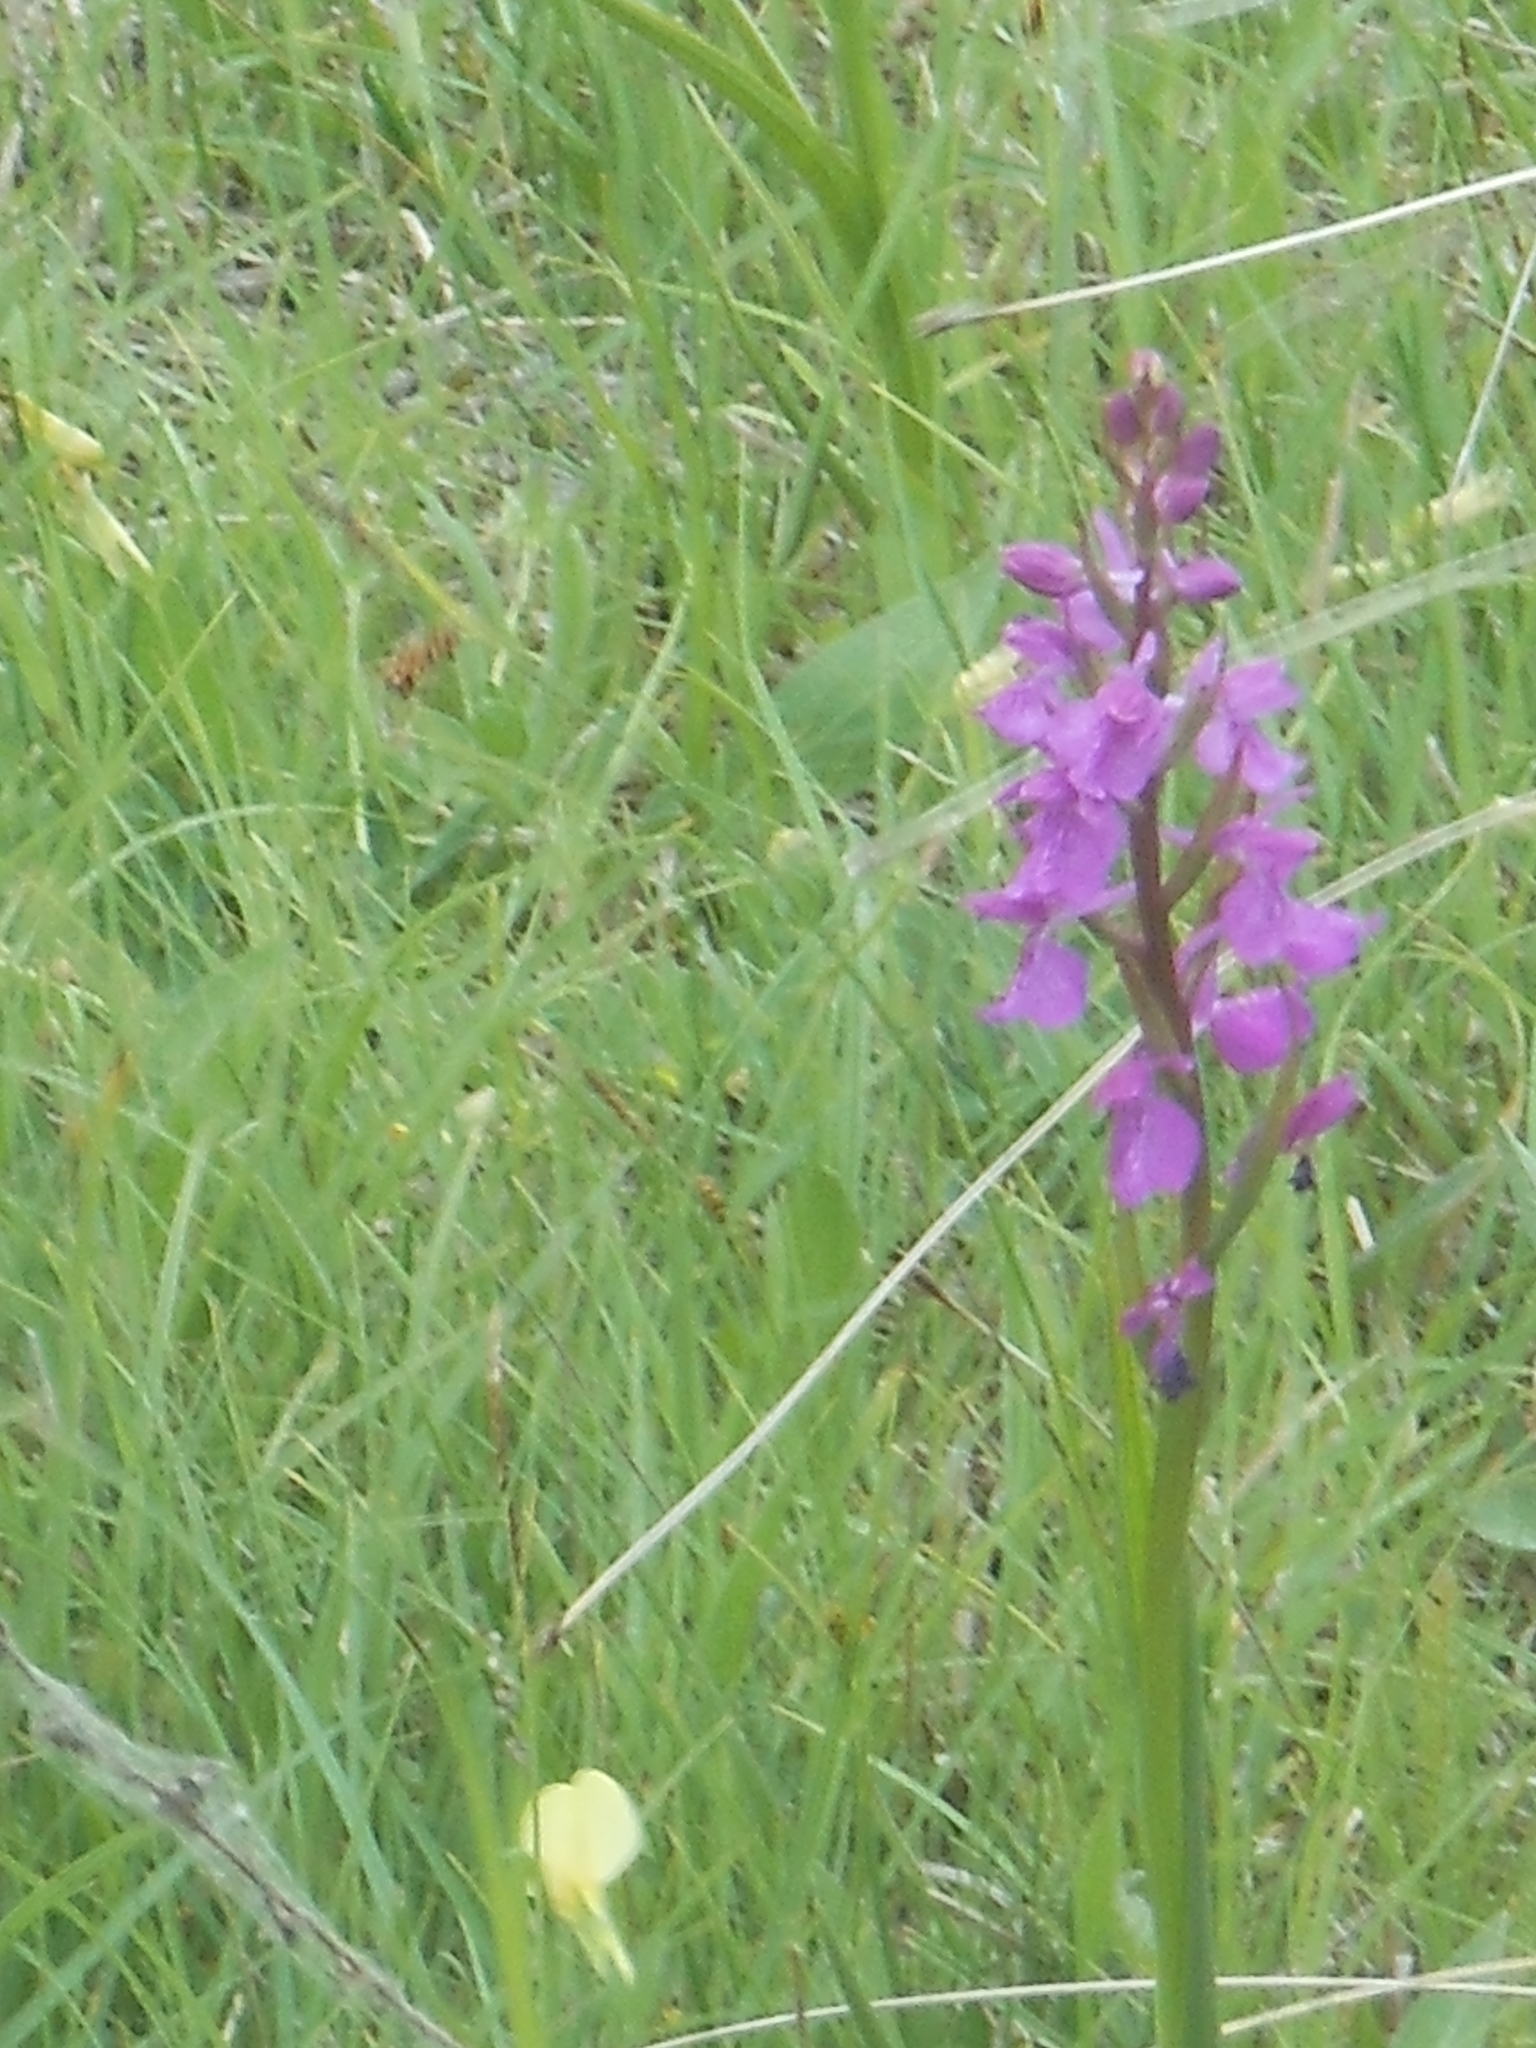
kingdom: Plantae
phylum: Tracheophyta
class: Liliopsida
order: Asparagales
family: Orchidaceae
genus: Anacamptis
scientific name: Anacamptis palustris
